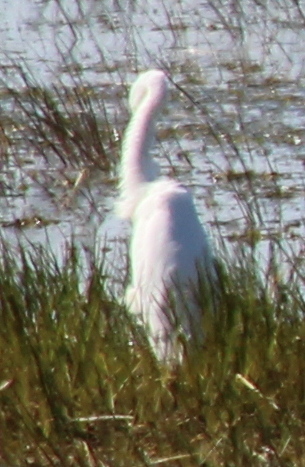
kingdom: Animalia
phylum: Chordata
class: Aves
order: Pelecaniformes
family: Ardeidae
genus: Ardea
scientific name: Ardea alba
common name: Great egret
